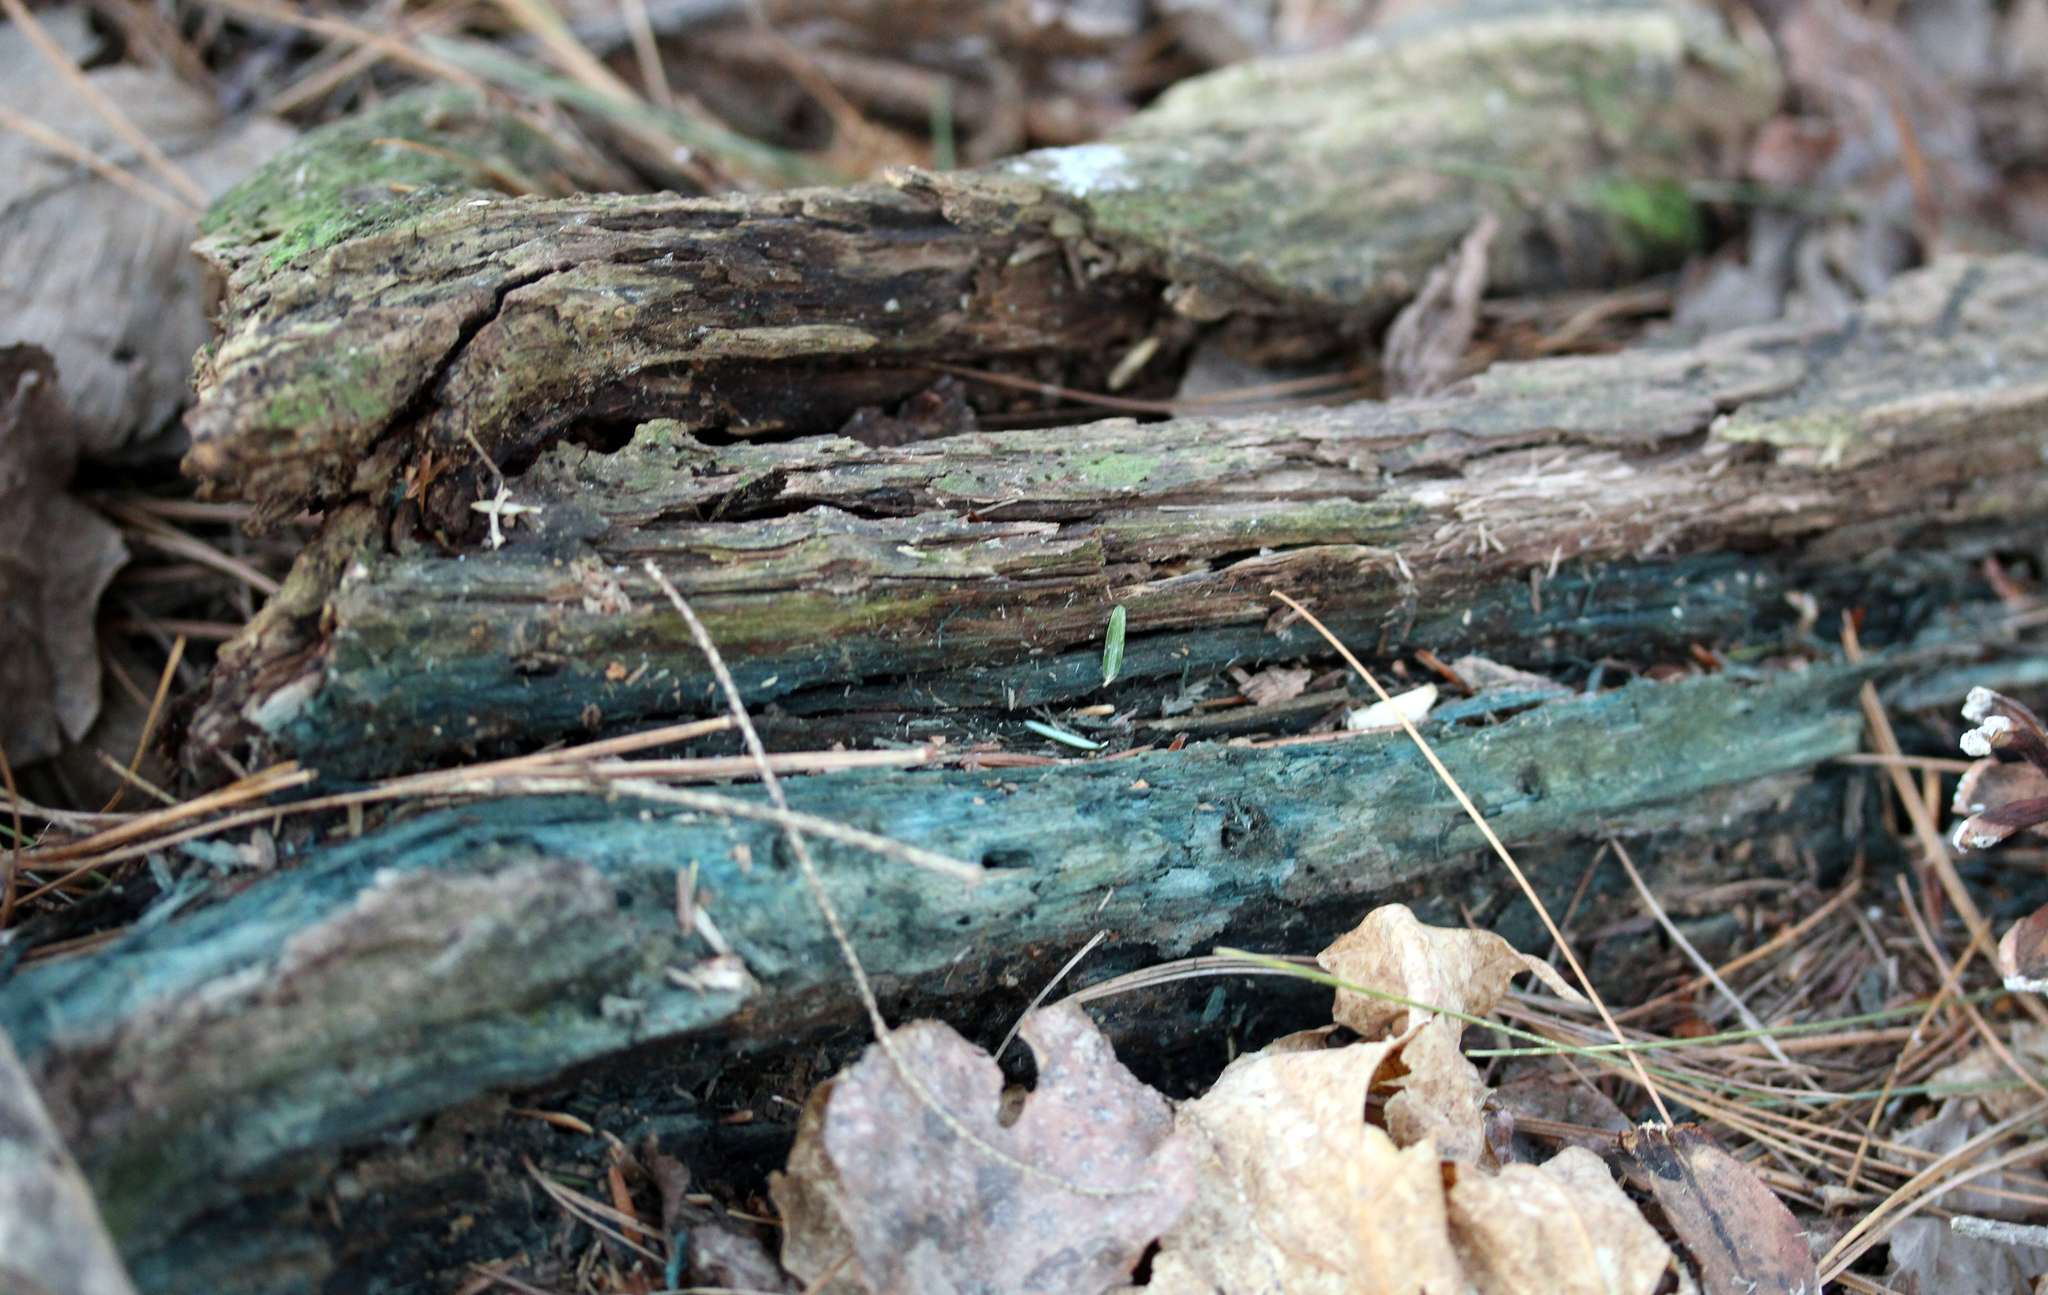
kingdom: Fungi
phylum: Ascomycota
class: Leotiomycetes
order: Helotiales
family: Chlorociboriaceae
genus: Chlorociboria
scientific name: Chlorociboria
